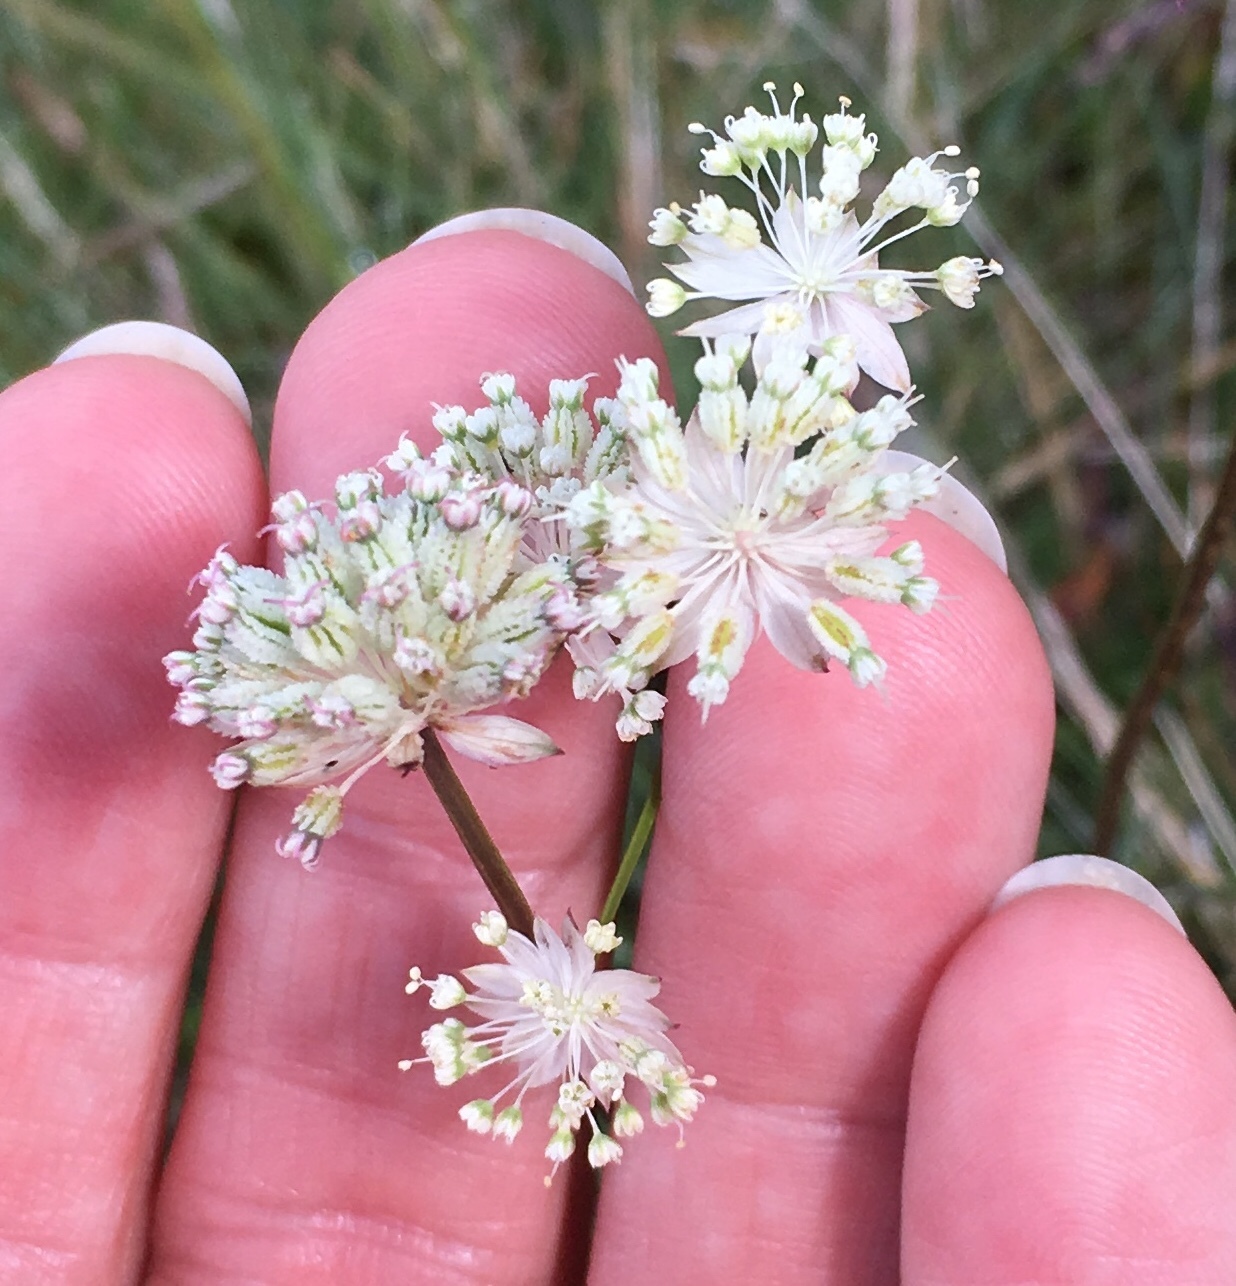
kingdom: Plantae
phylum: Tracheophyta
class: Magnoliopsida
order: Apiales
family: Apiaceae
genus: Astrantia
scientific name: Astrantia minor
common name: Lesser masterwort
